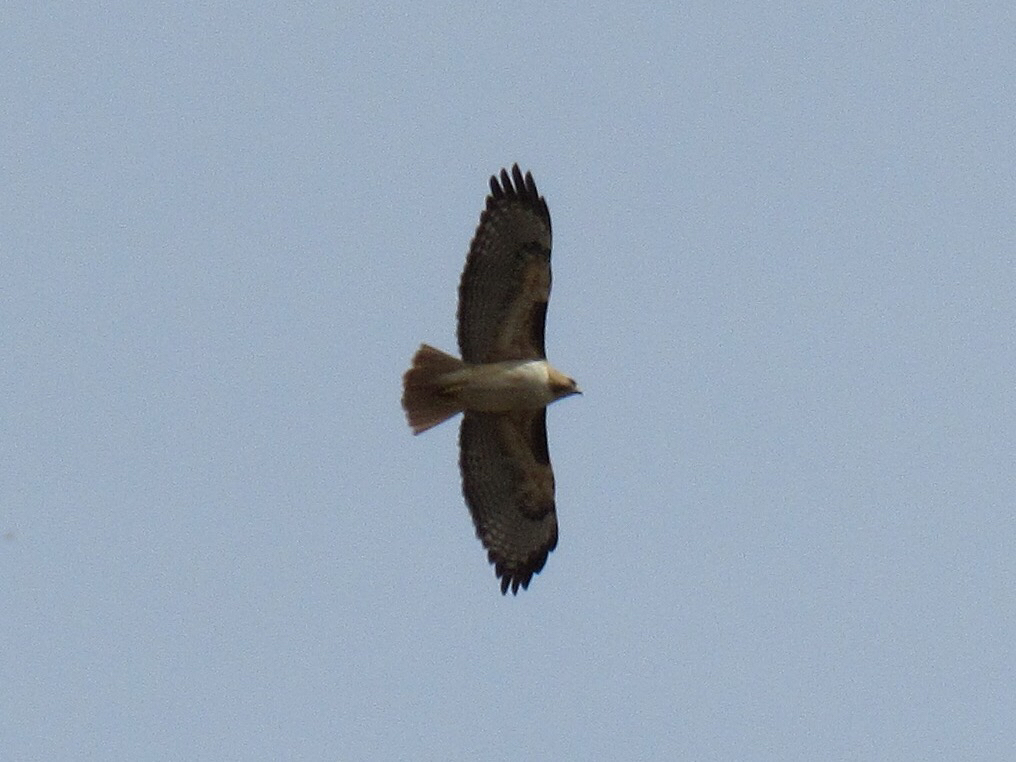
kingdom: Animalia
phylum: Chordata
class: Aves
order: Accipitriformes
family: Accipitridae
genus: Buteo
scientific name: Buteo jamaicensis
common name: Red-tailed hawk
